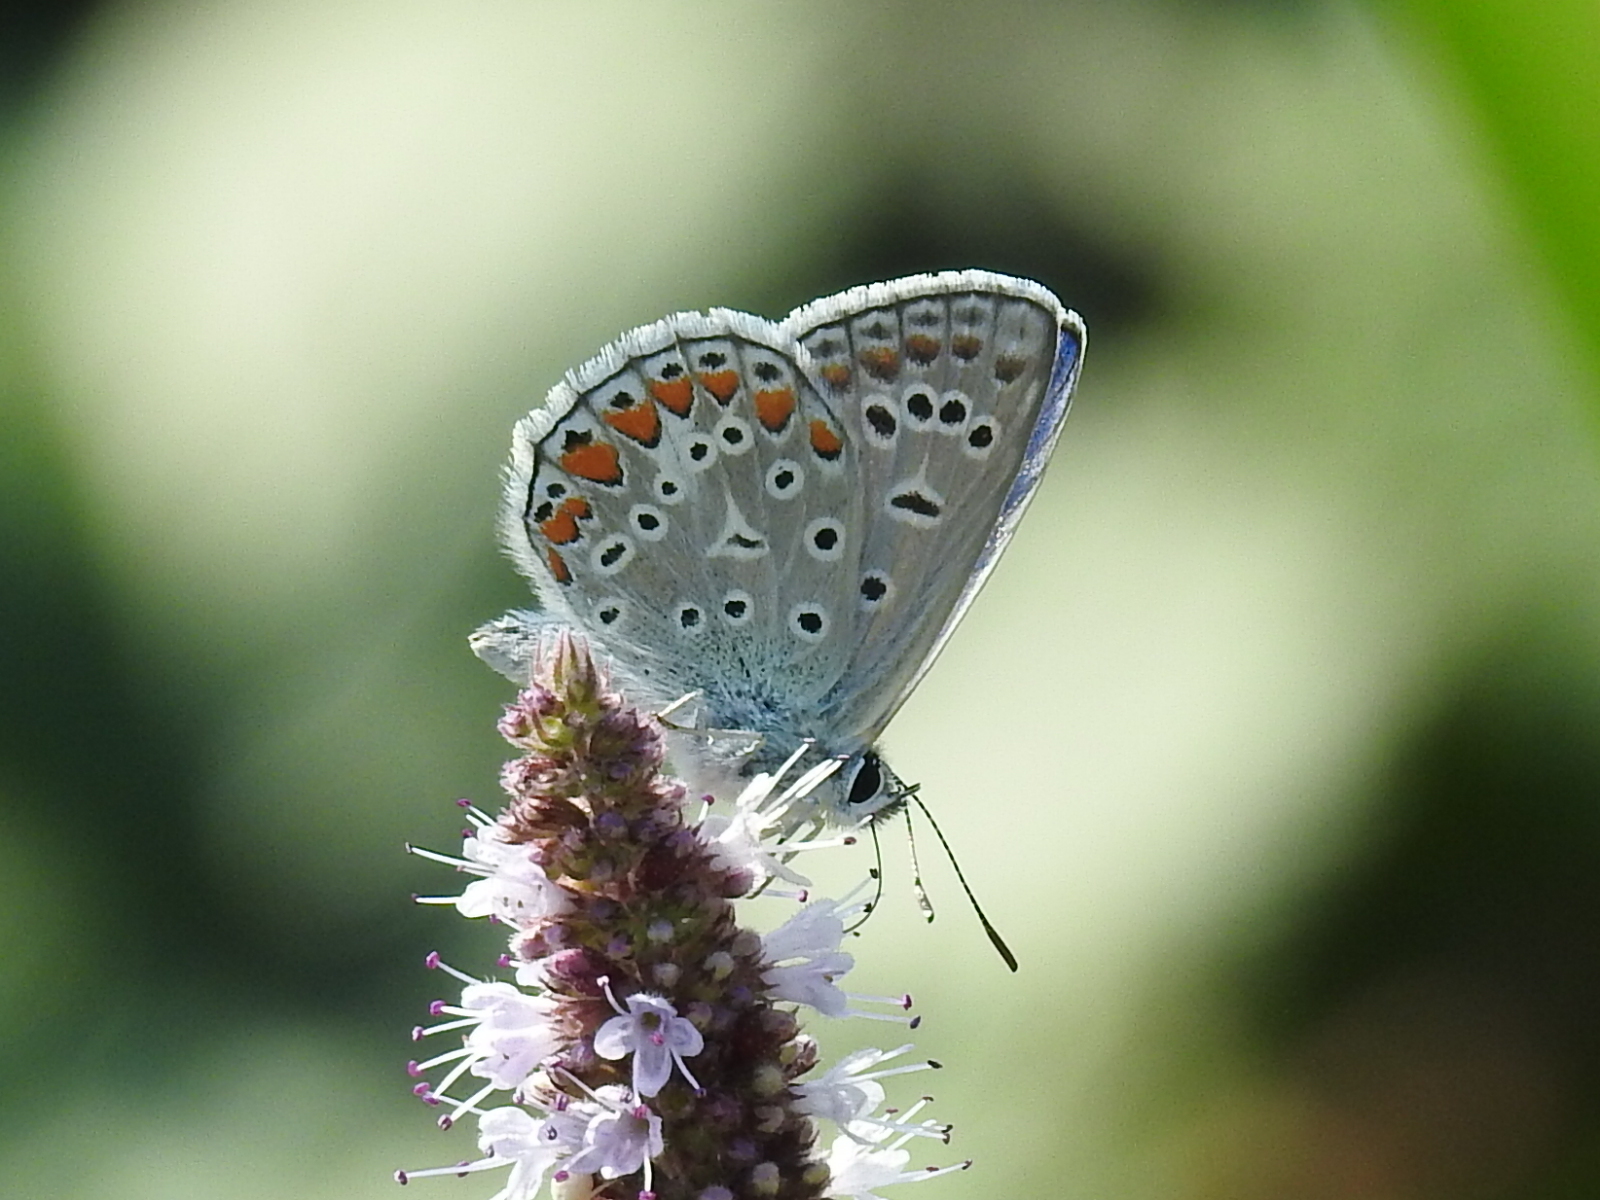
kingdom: Animalia
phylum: Arthropoda
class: Insecta
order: Lepidoptera
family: Lycaenidae
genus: Polyommatus
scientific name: Polyommatus icarus
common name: Common blue
